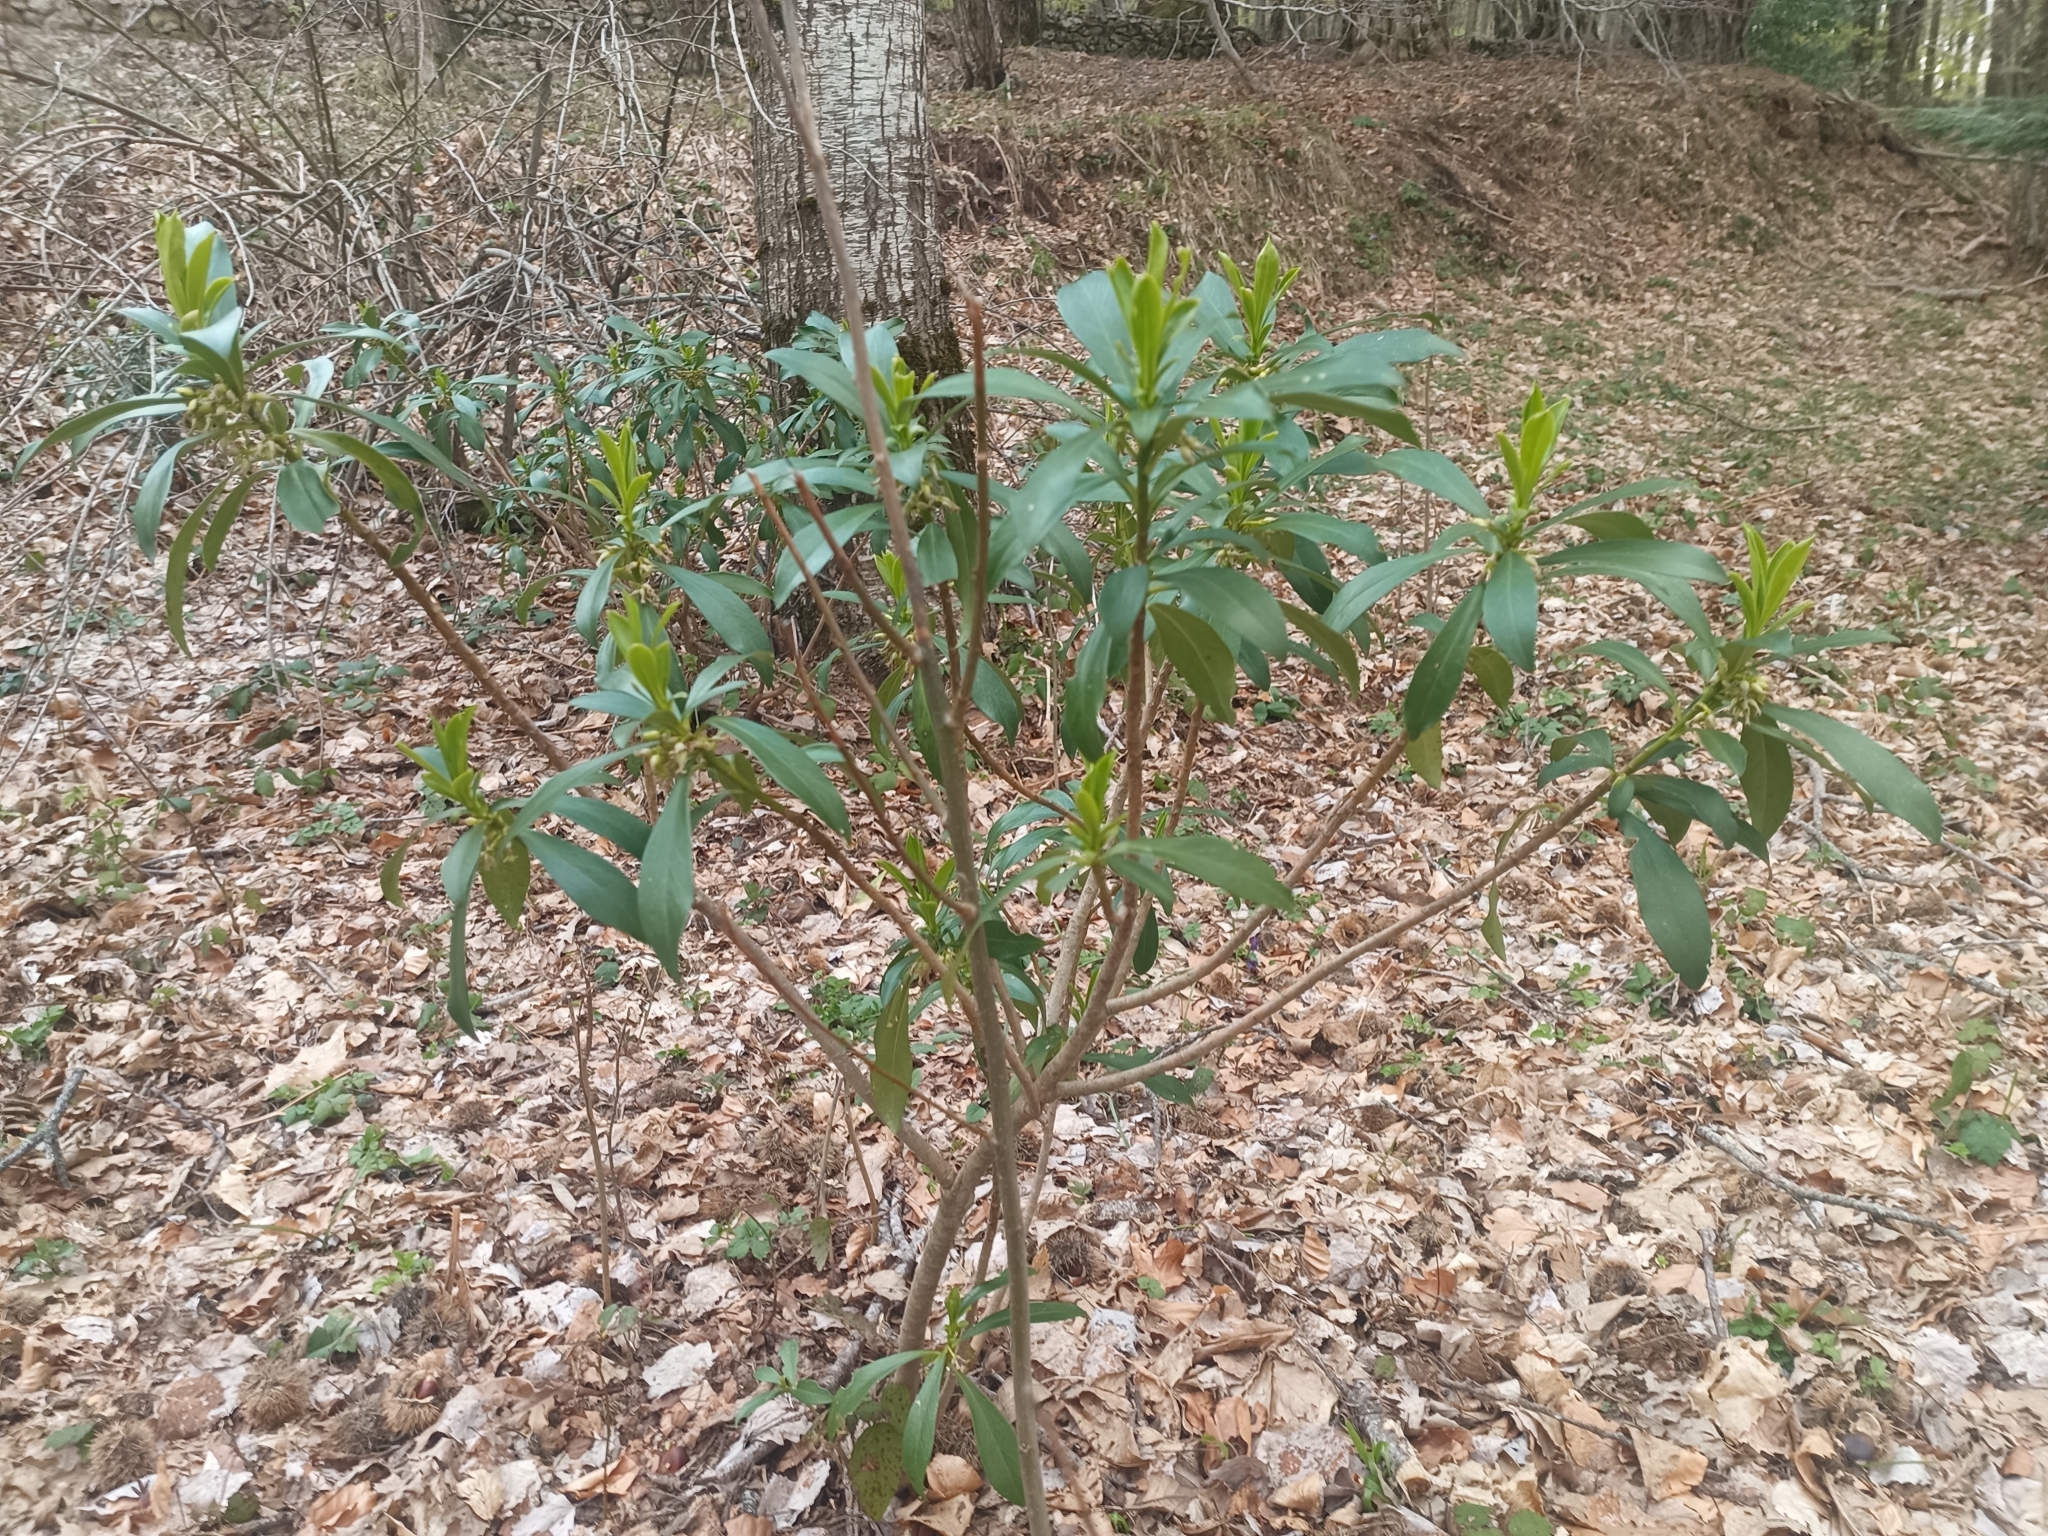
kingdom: Plantae
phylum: Tracheophyta
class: Magnoliopsida
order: Malvales
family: Thymelaeaceae
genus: Daphne
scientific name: Daphne laureola
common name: Spurge-laurel
